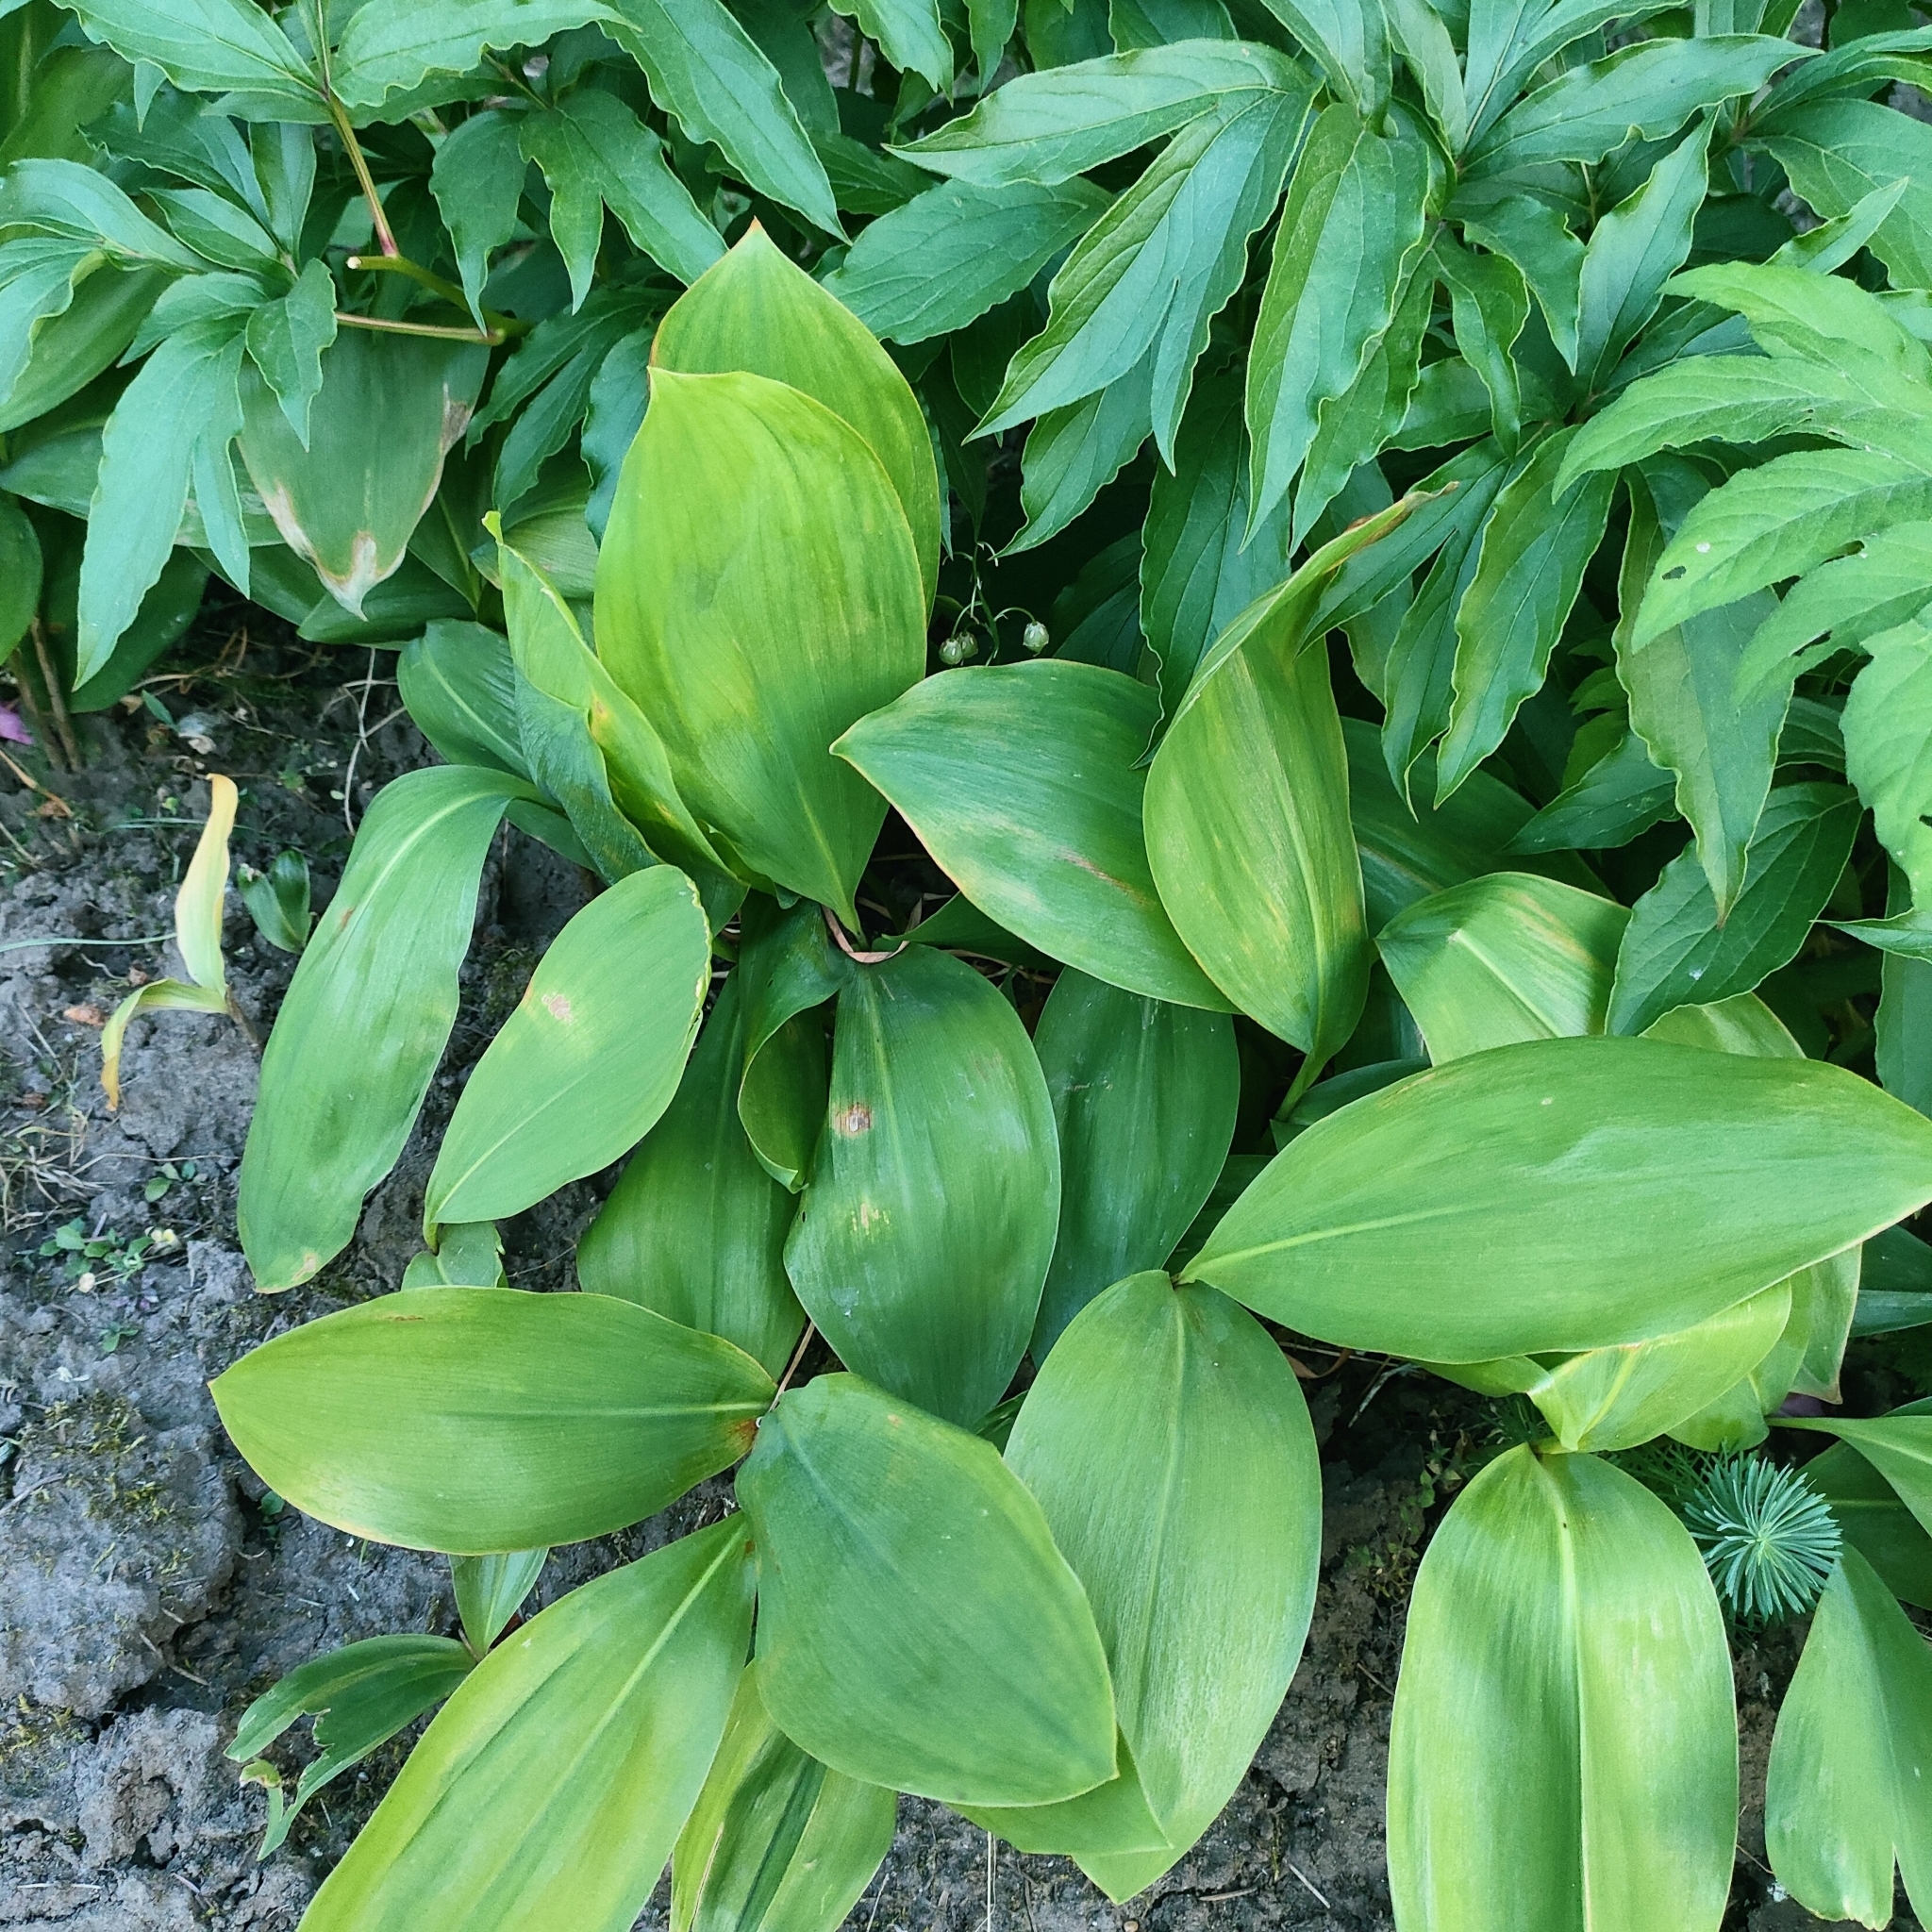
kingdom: Plantae
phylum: Tracheophyta
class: Liliopsida
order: Asparagales
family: Asparagaceae
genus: Convallaria
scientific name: Convallaria majalis
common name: Lily-of-the-valley
